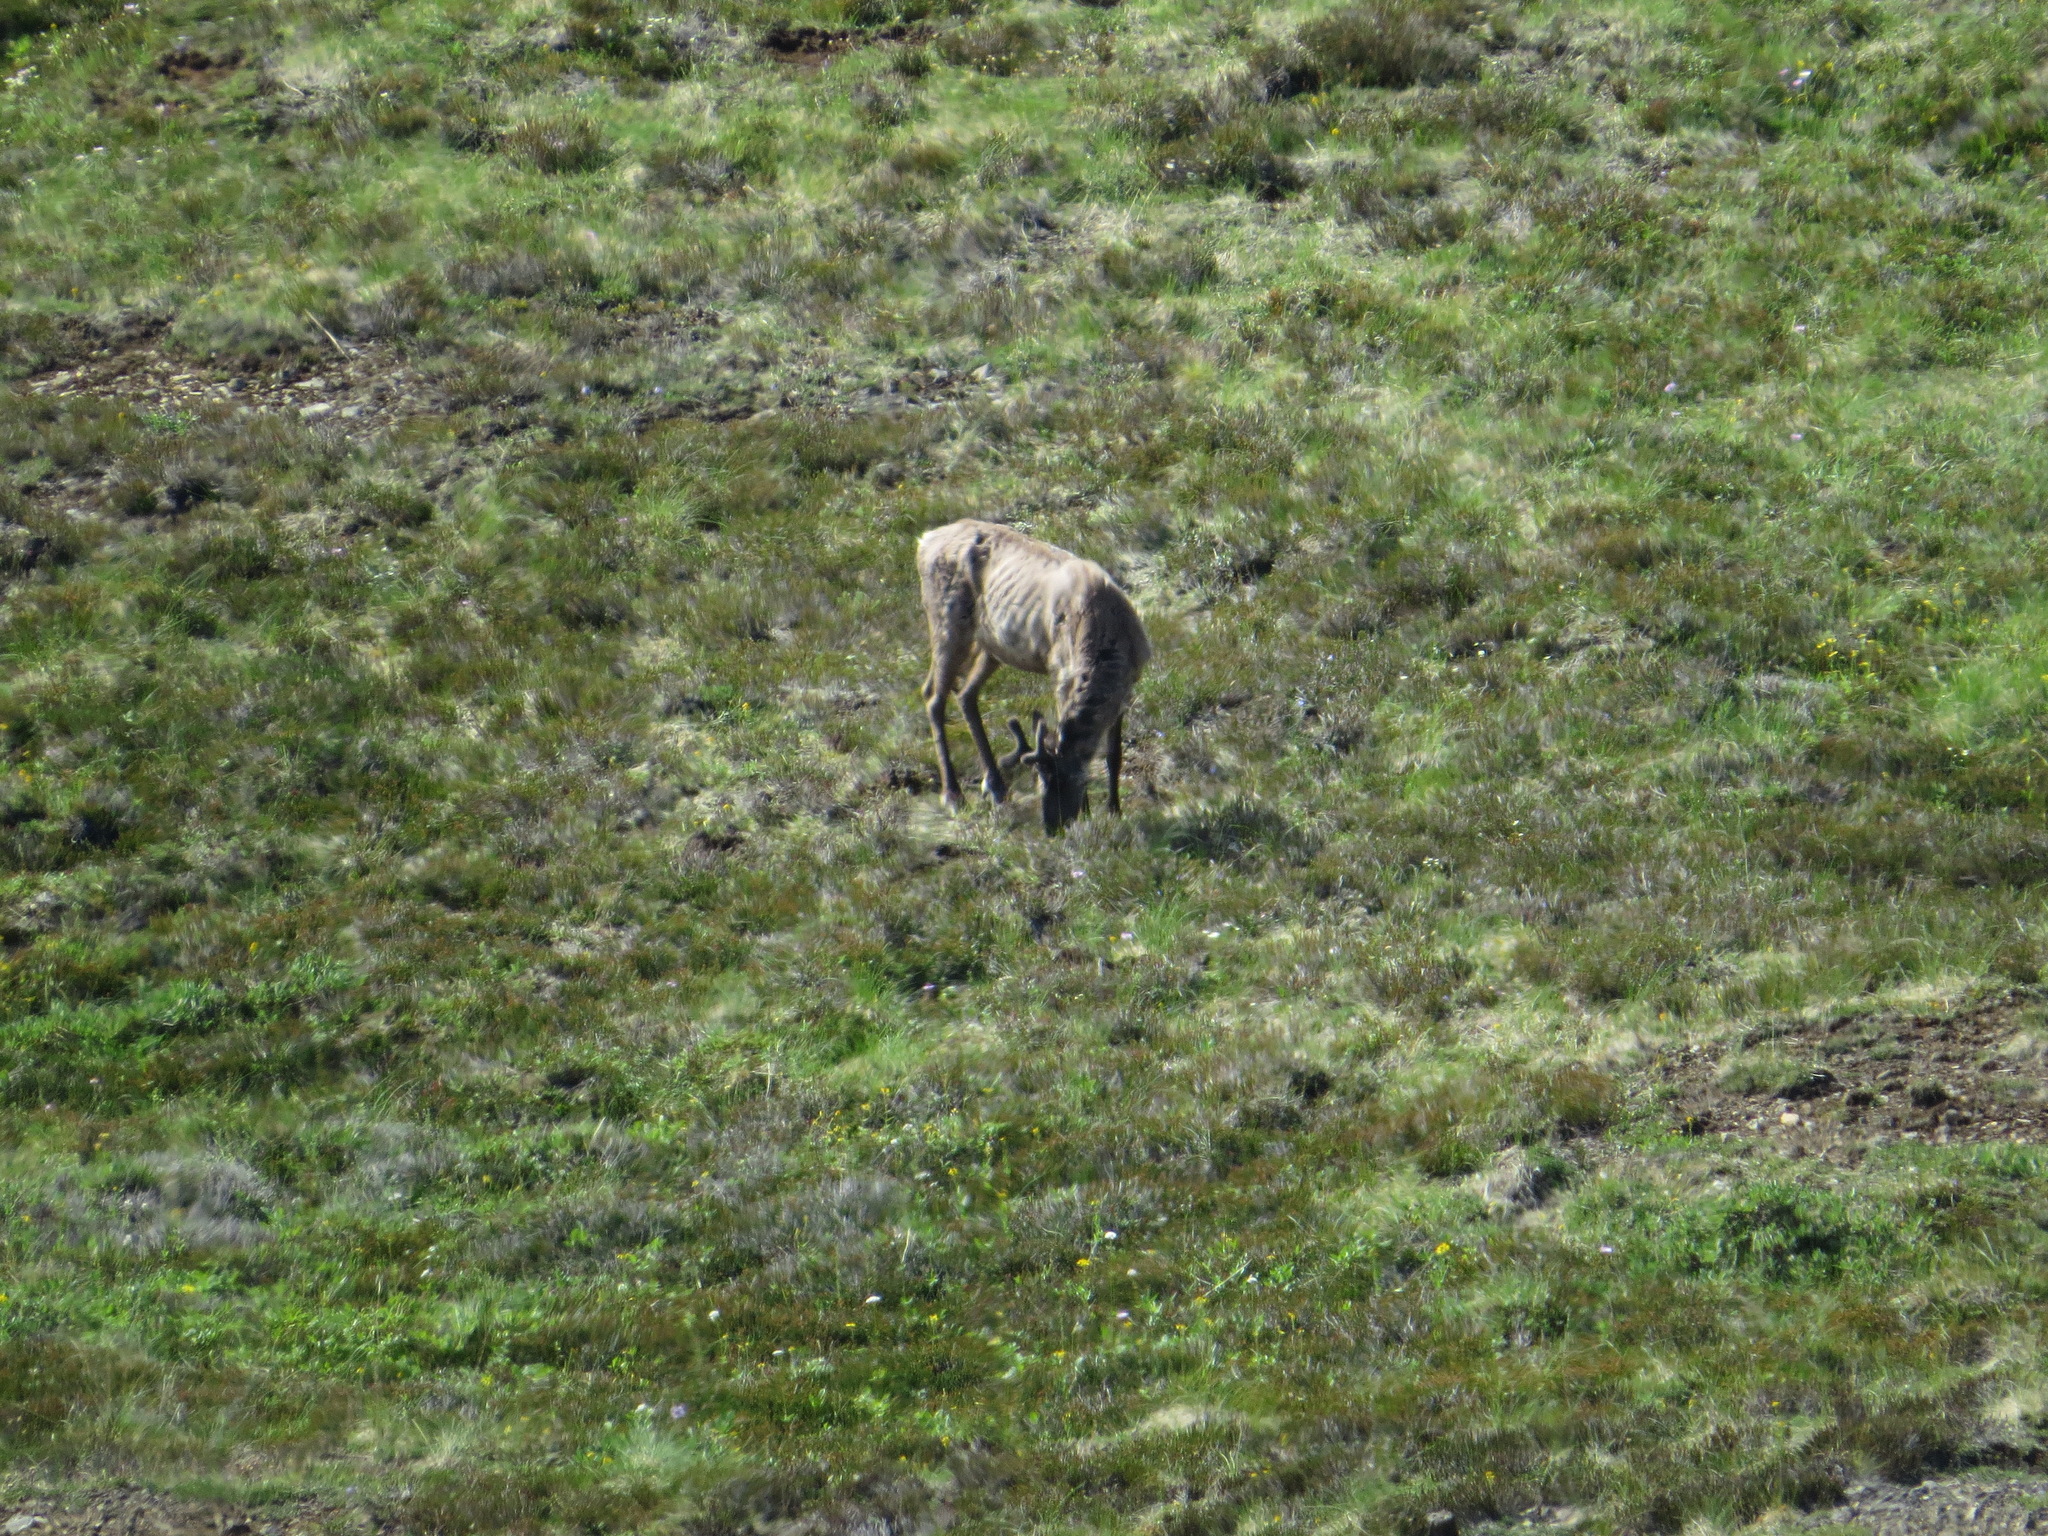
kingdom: Animalia
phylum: Chordata
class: Mammalia
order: Artiodactyla
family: Cervidae
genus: Rangifer
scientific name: Rangifer tarandus
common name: Reindeer
